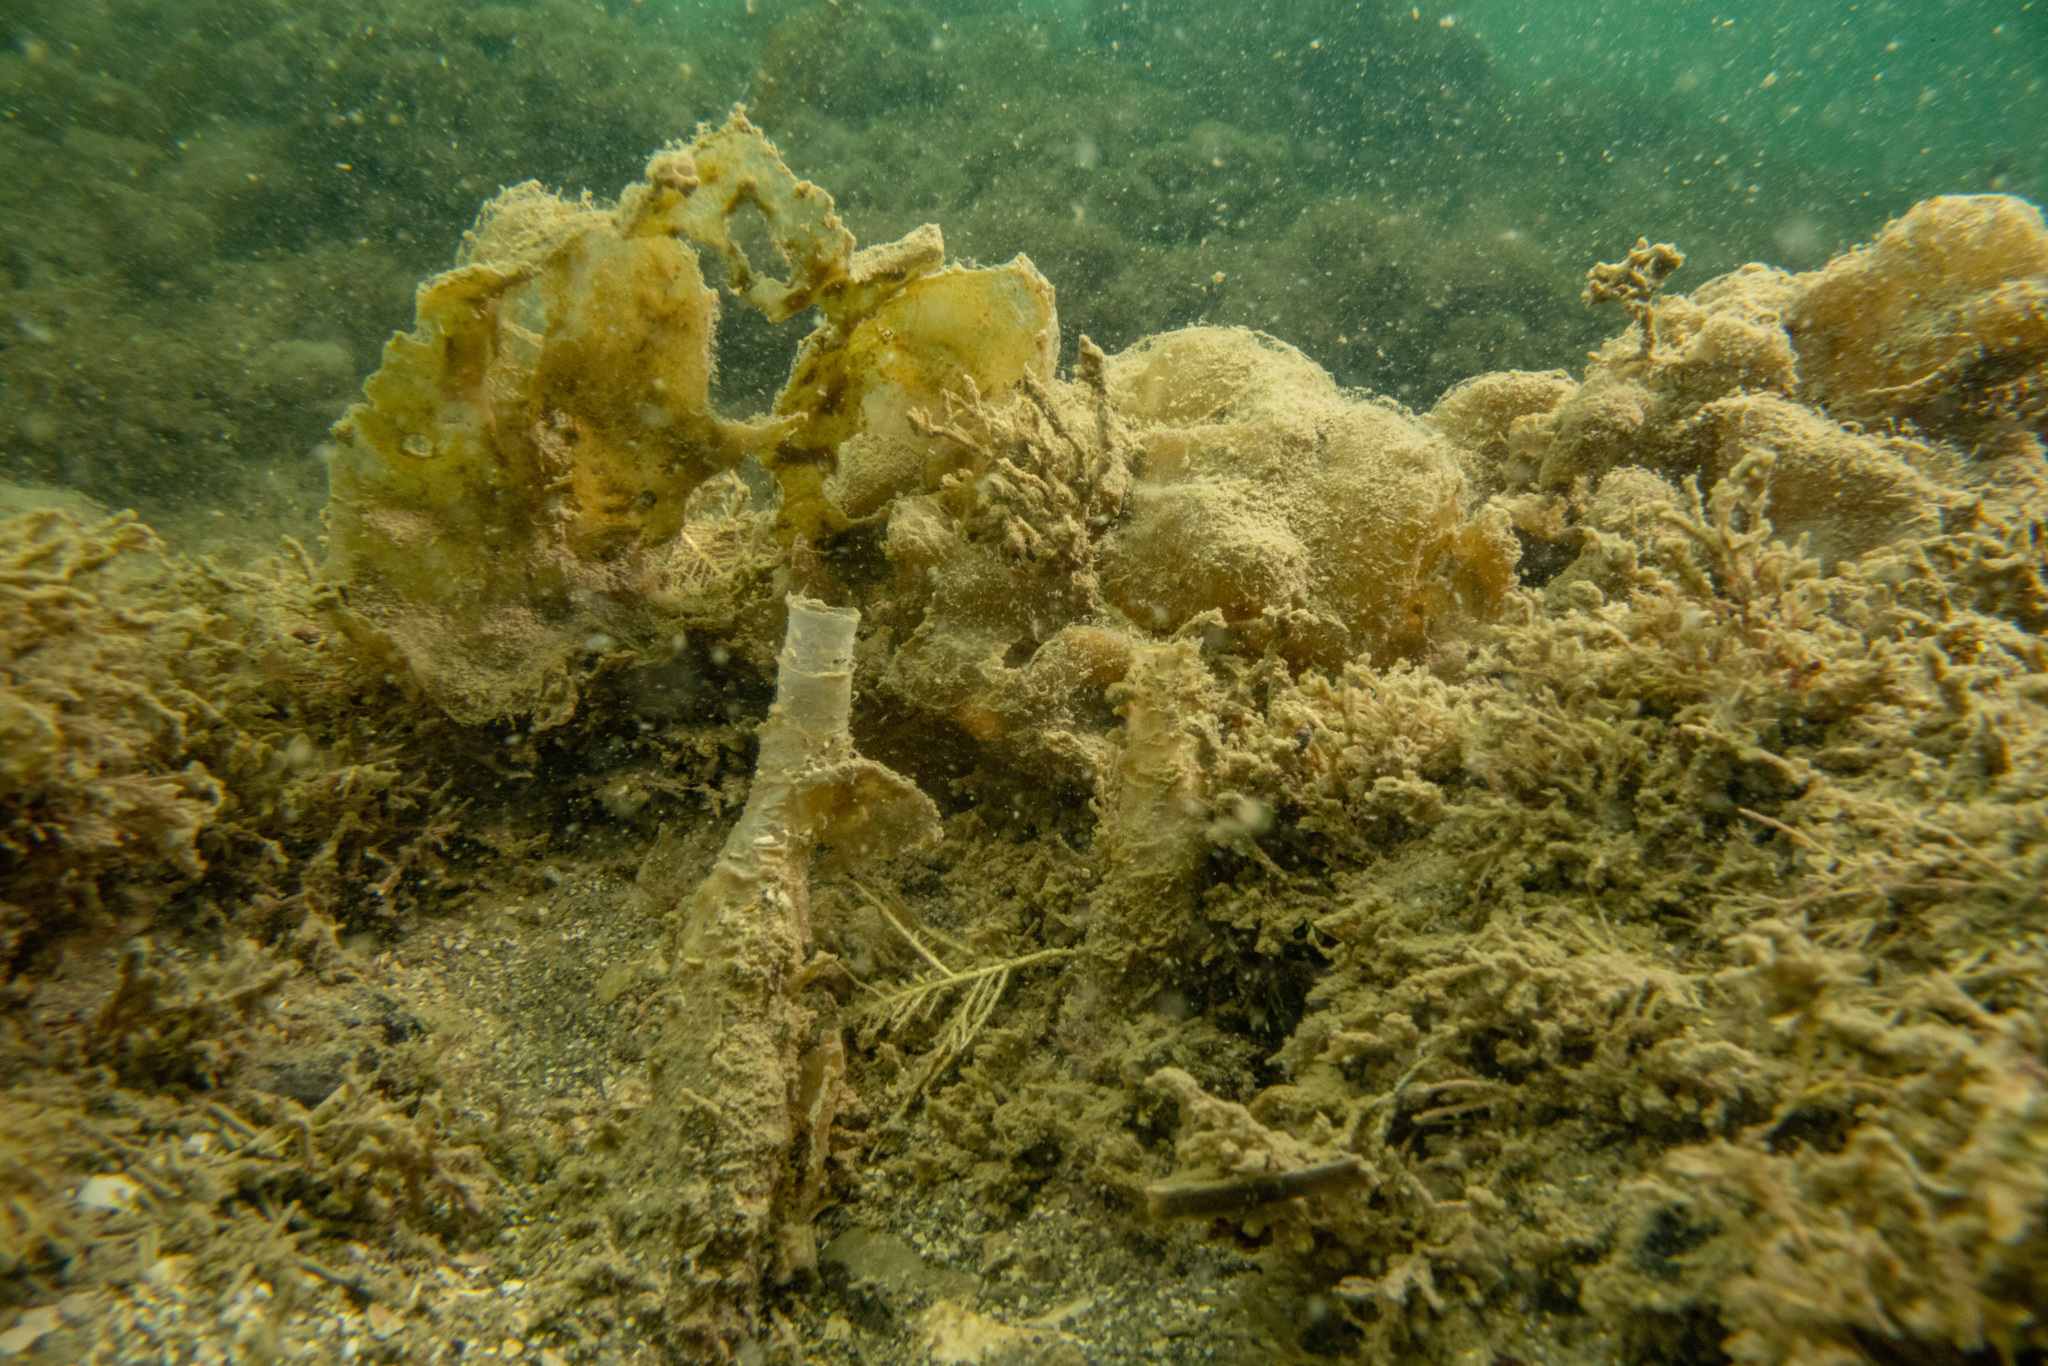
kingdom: Animalia
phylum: Annelida
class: Polychaeta
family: Chaetopteridae
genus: Chaetopterus
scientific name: Chaetopterus
